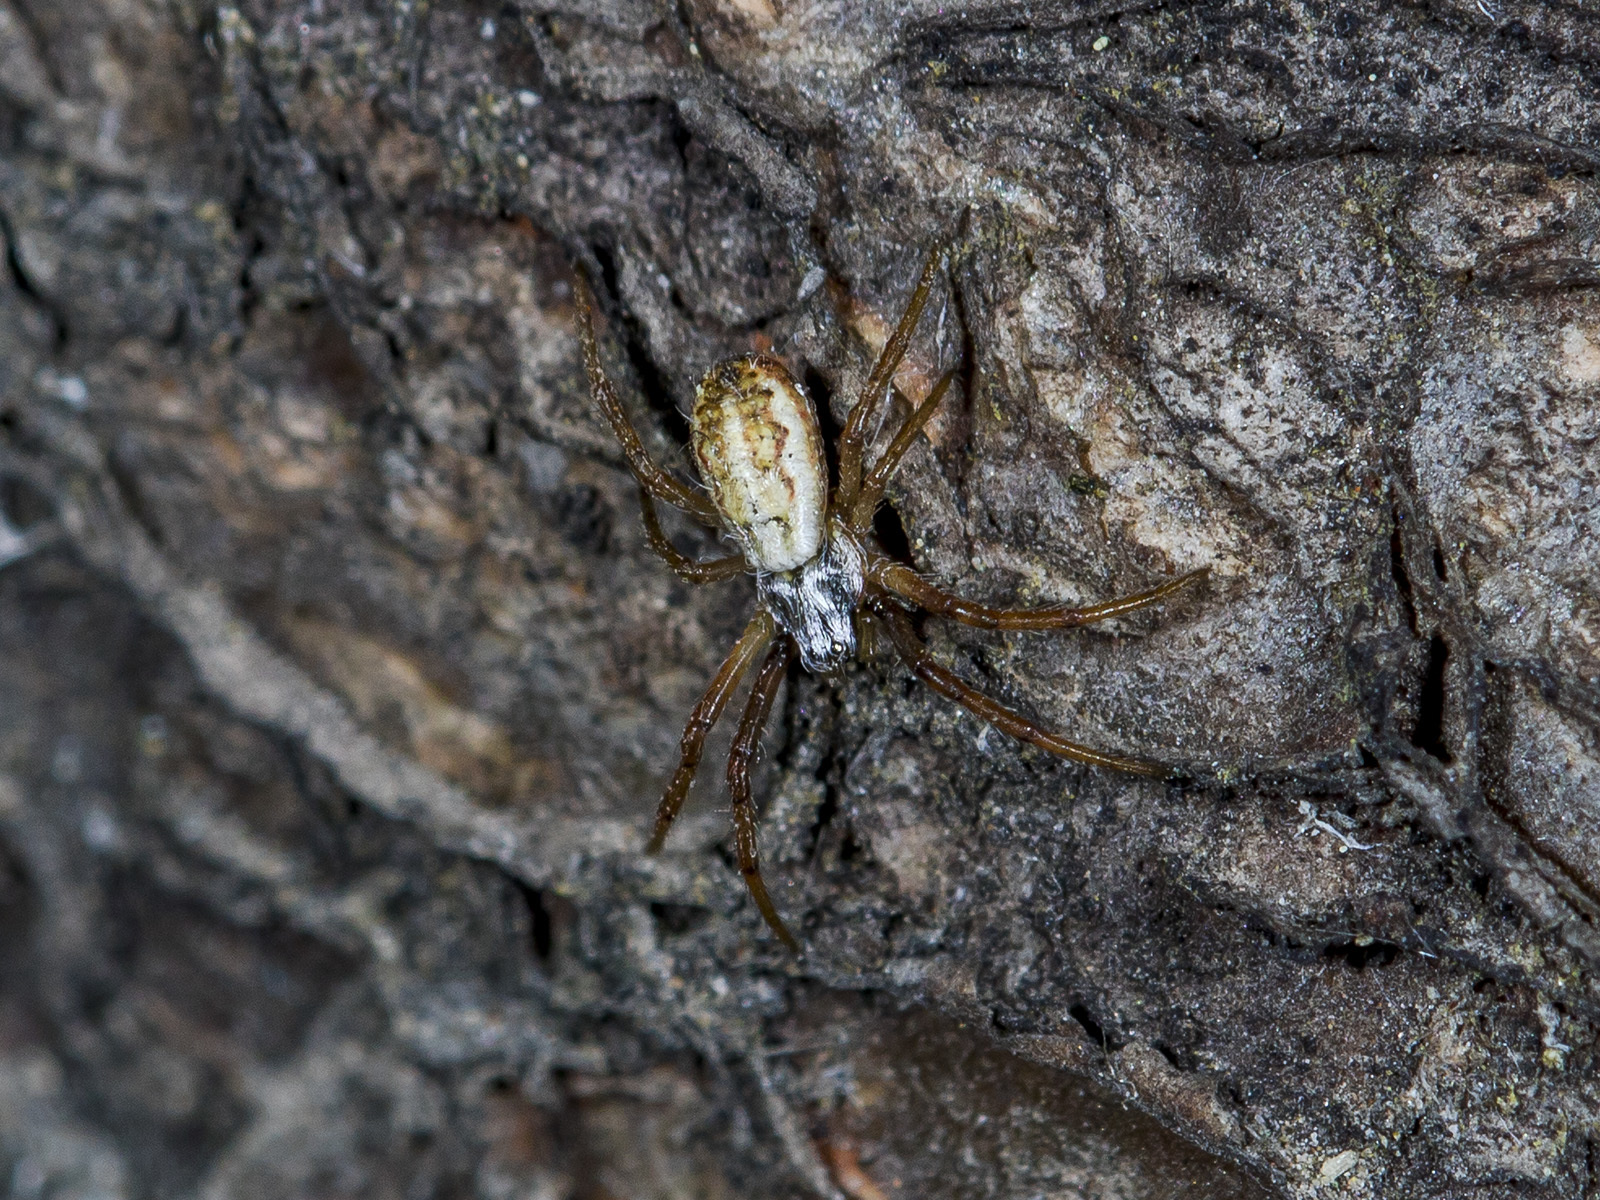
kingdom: Animalia
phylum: Arthropoda
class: Arachnida
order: Araneae
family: Araneidae
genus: Argiope
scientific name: Argiope bruennichi
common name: Wasp spider
